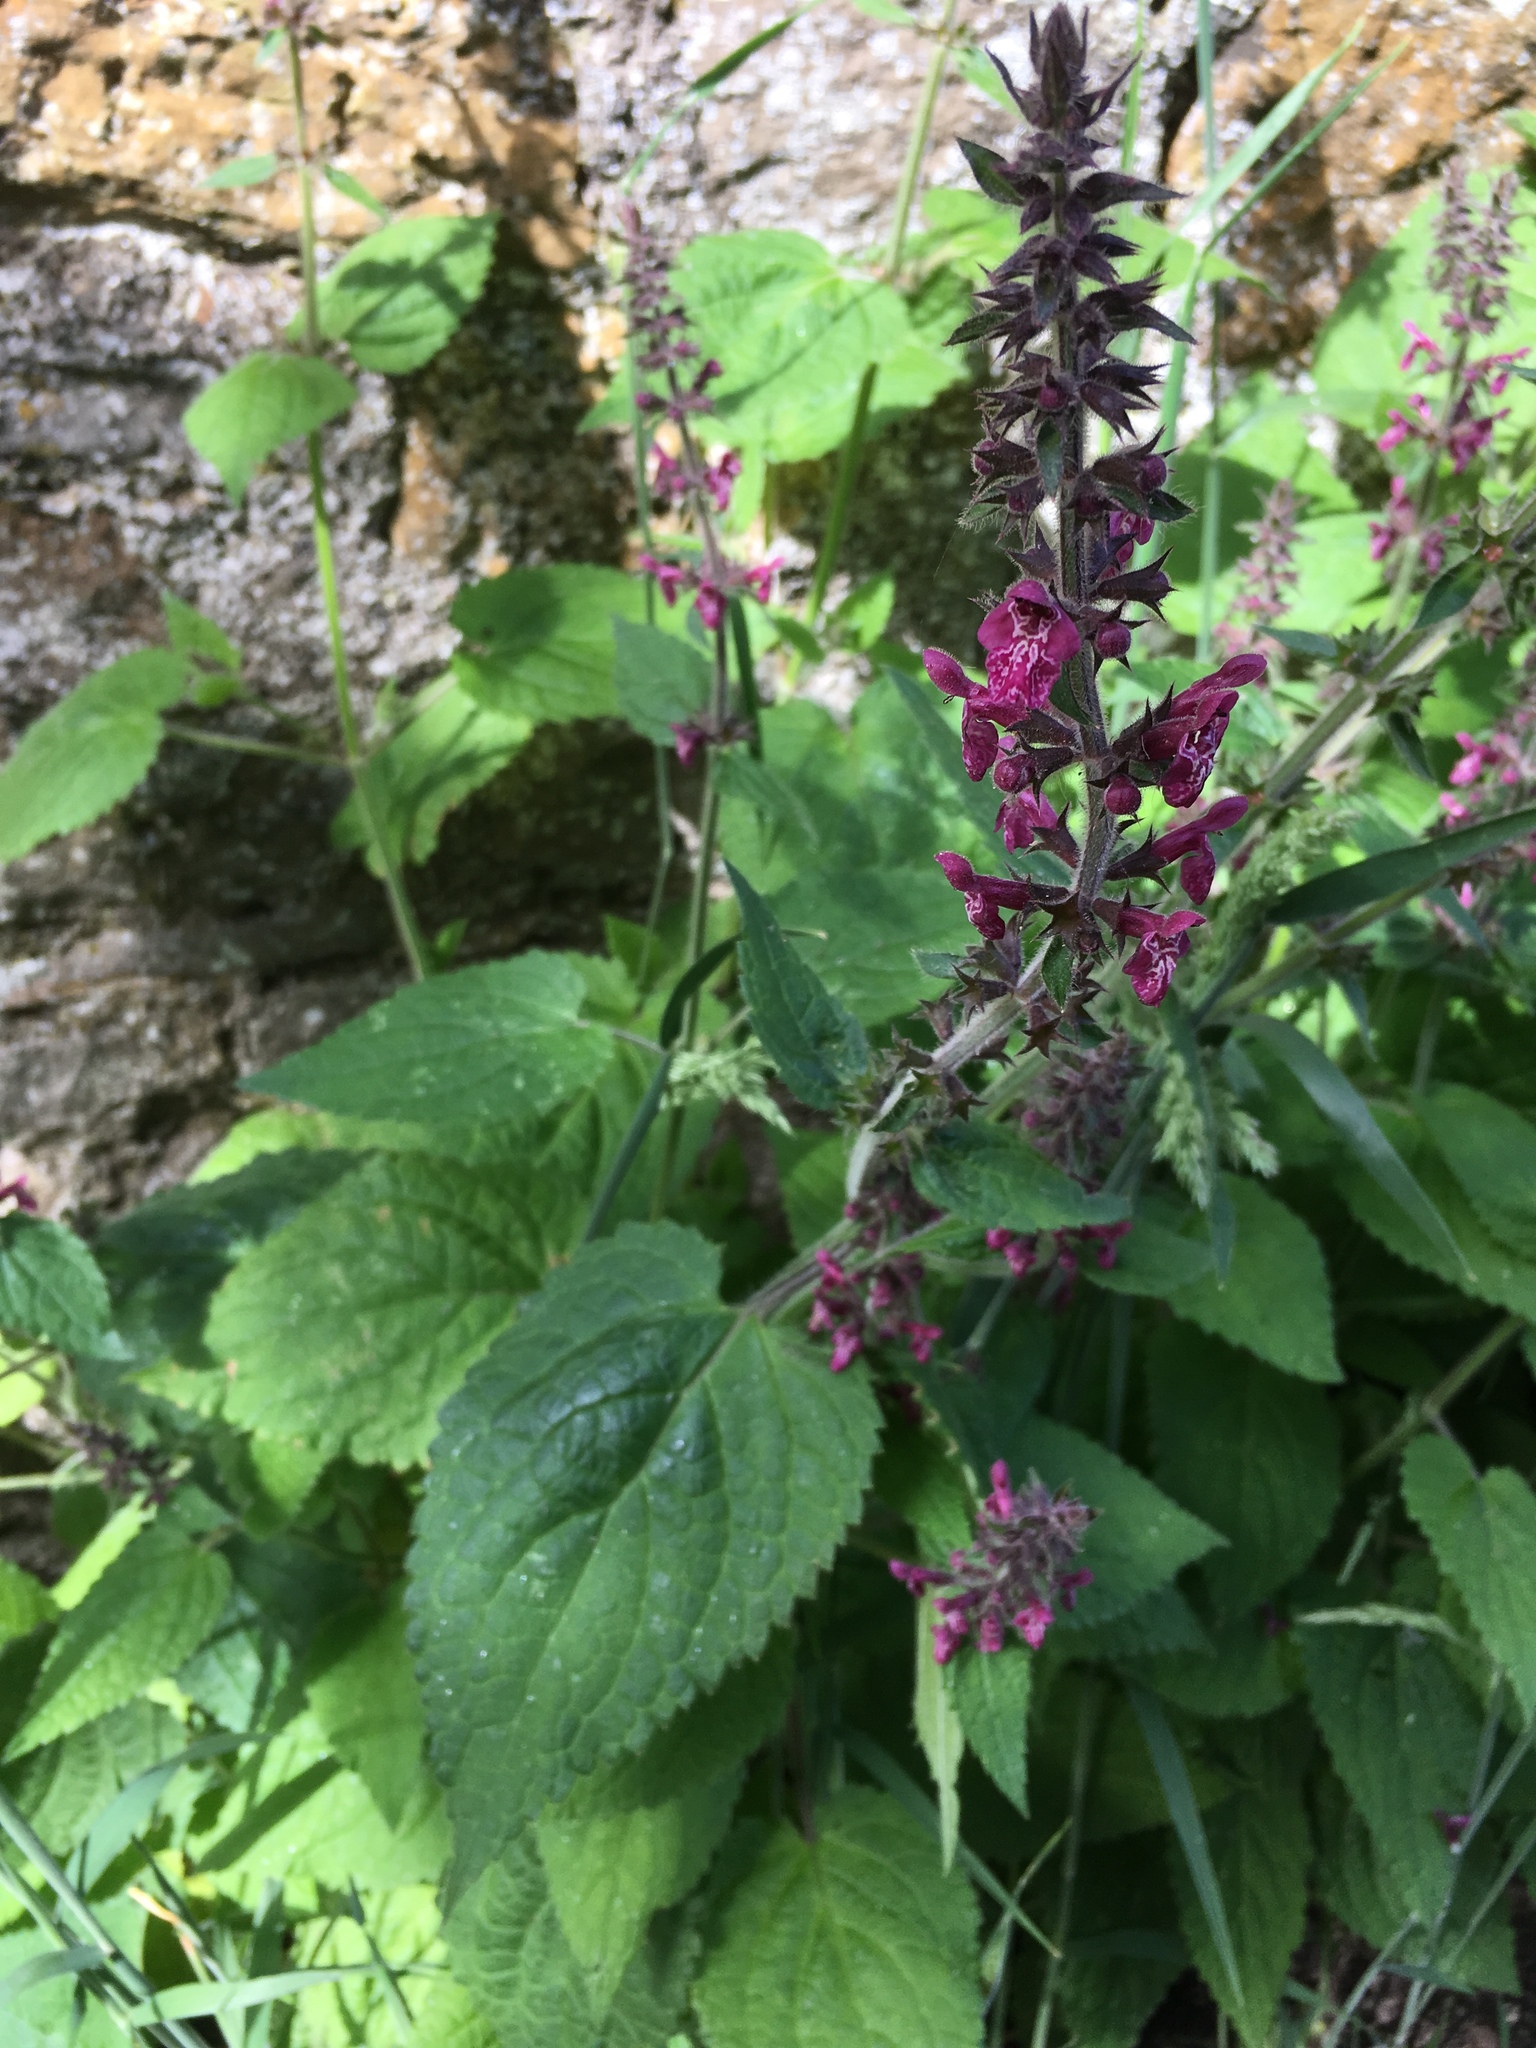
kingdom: Plantae
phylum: Tracheophyta
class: Magnoliopsida
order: Lamiales
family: Lamiaceae
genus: Stachys
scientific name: Stachys sylvatica
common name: Hedge woundwort
